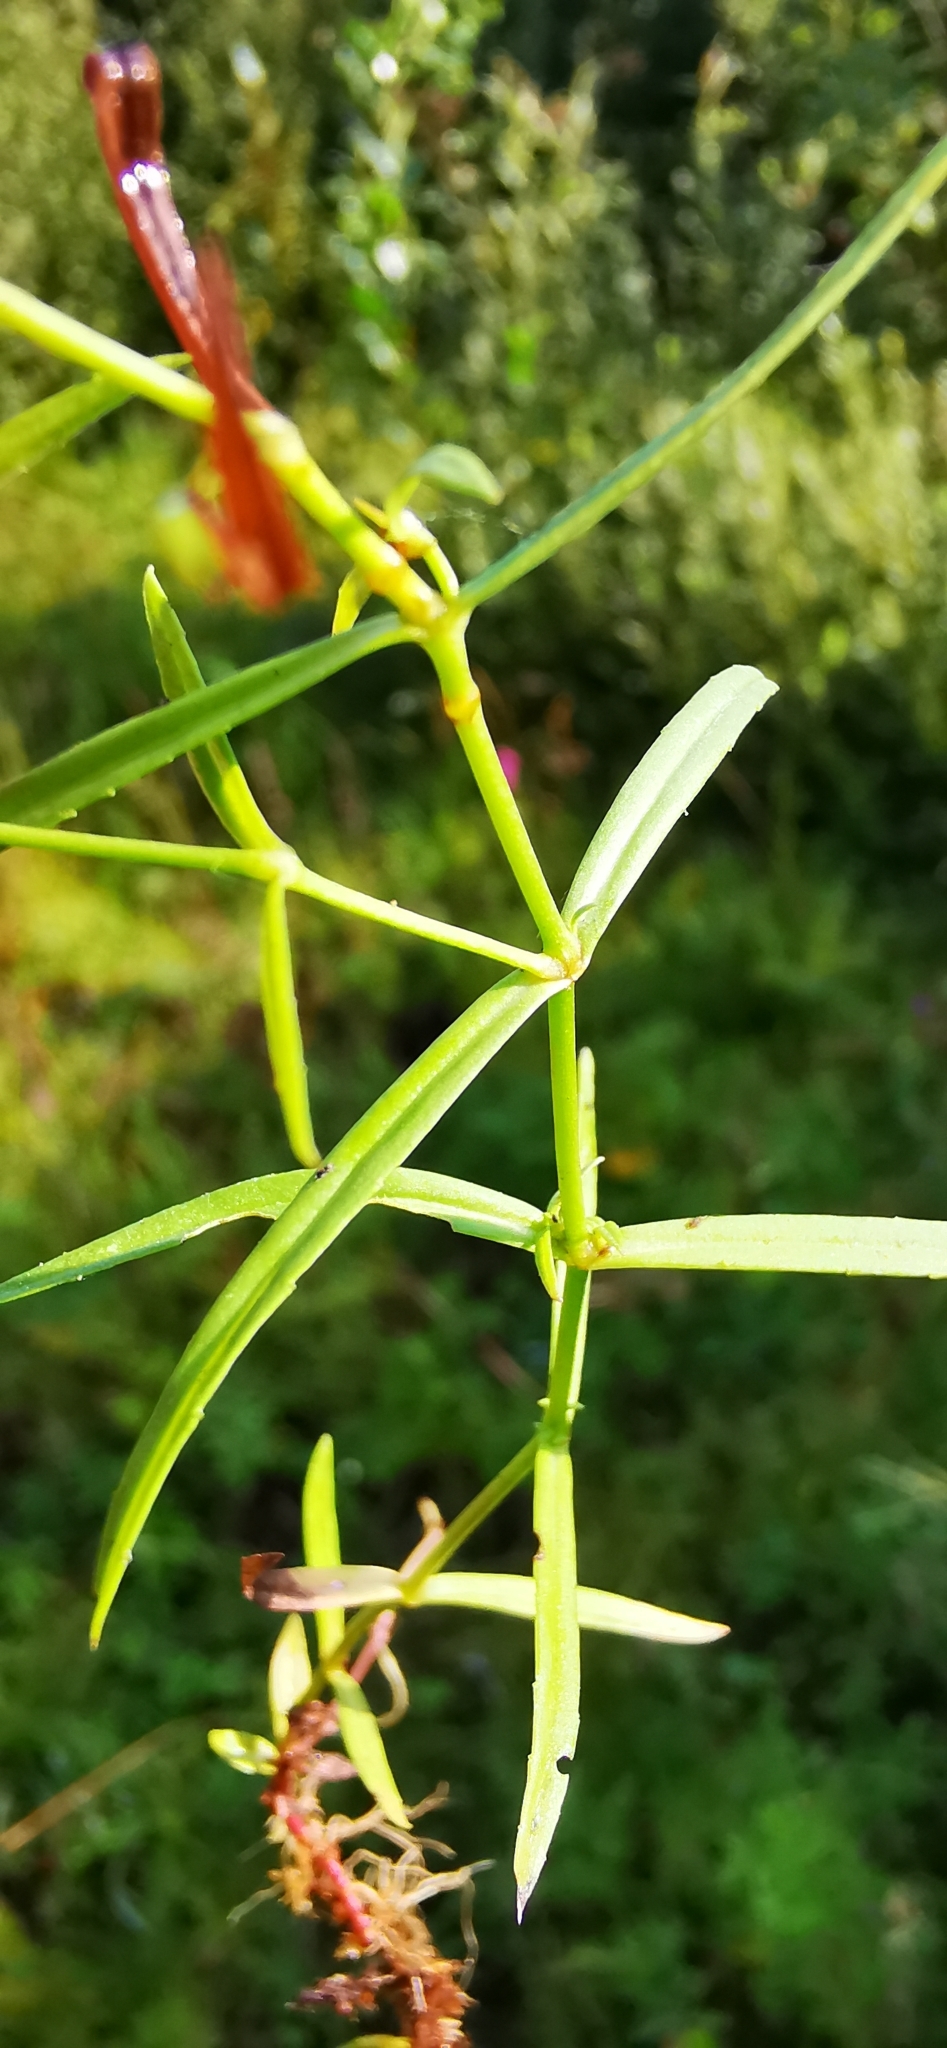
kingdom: Plantae
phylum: Tracheophyta
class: Magnoliopsida
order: Lamiales
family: Plantaginaceae
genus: Veronica
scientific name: Veronica scutellata
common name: Marsh speedwell
